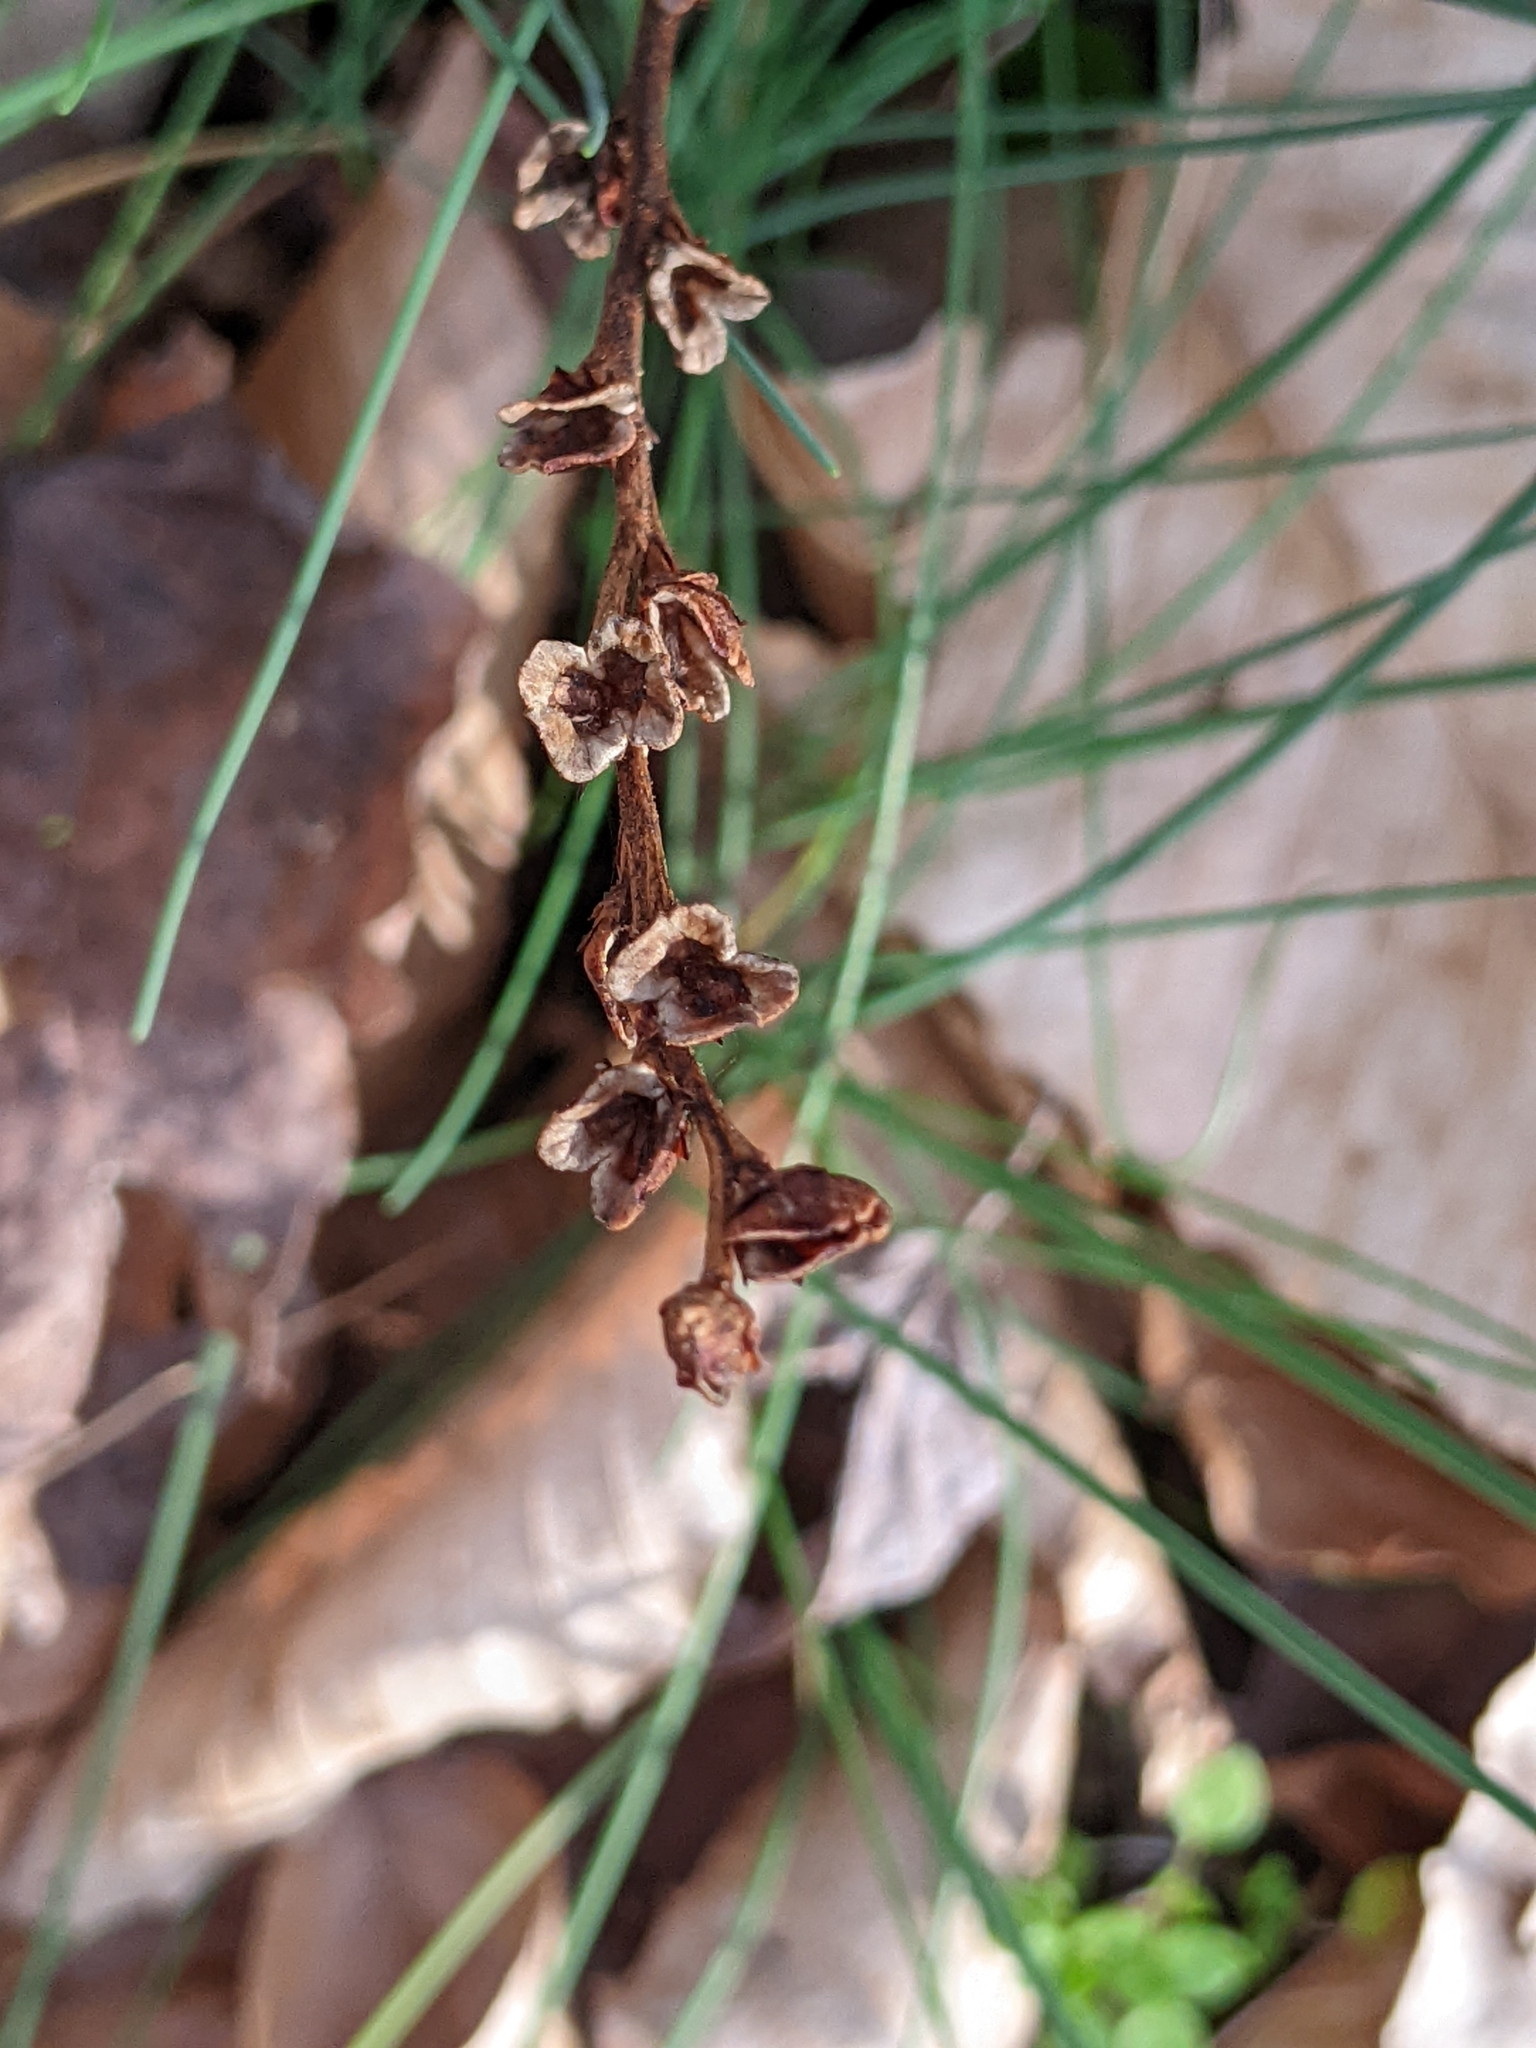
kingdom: Plantae
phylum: Tracheophyta
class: Magnoliopsida
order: Lamiales
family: Orobanchaceae
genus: Epifagus
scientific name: Epifagus virginiana
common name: Beechdrops
